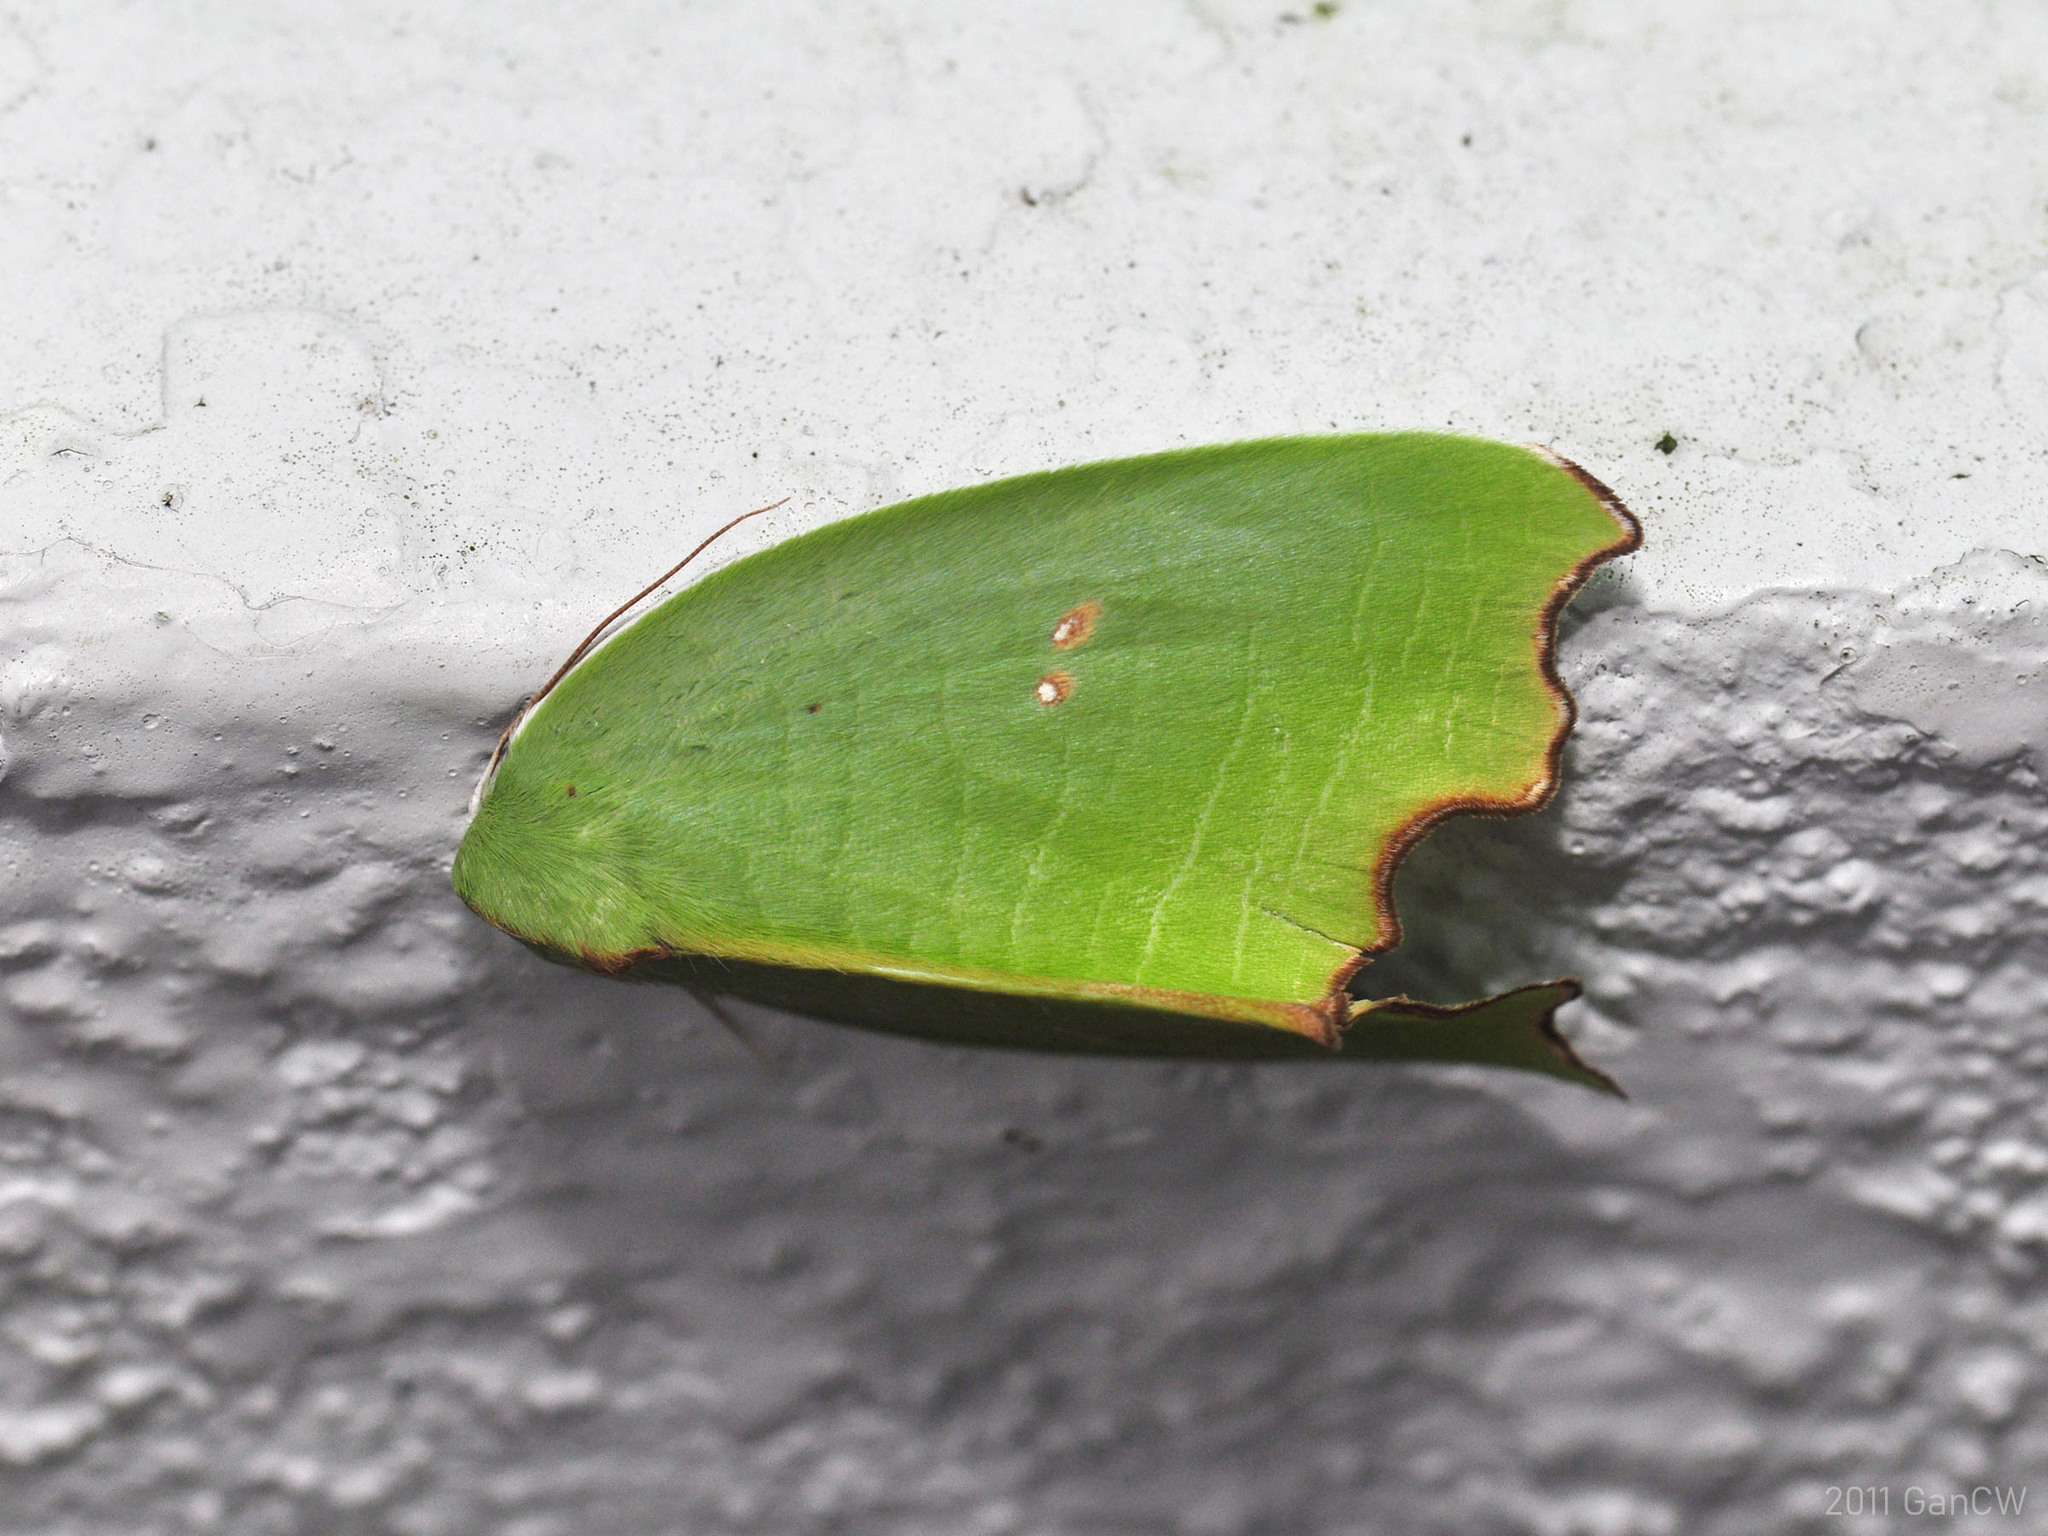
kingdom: Animalia
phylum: Arthropoda
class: Insecta
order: Lepidoptera
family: Noctuidae
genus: Plagerepne
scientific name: Plagerepne torquata
